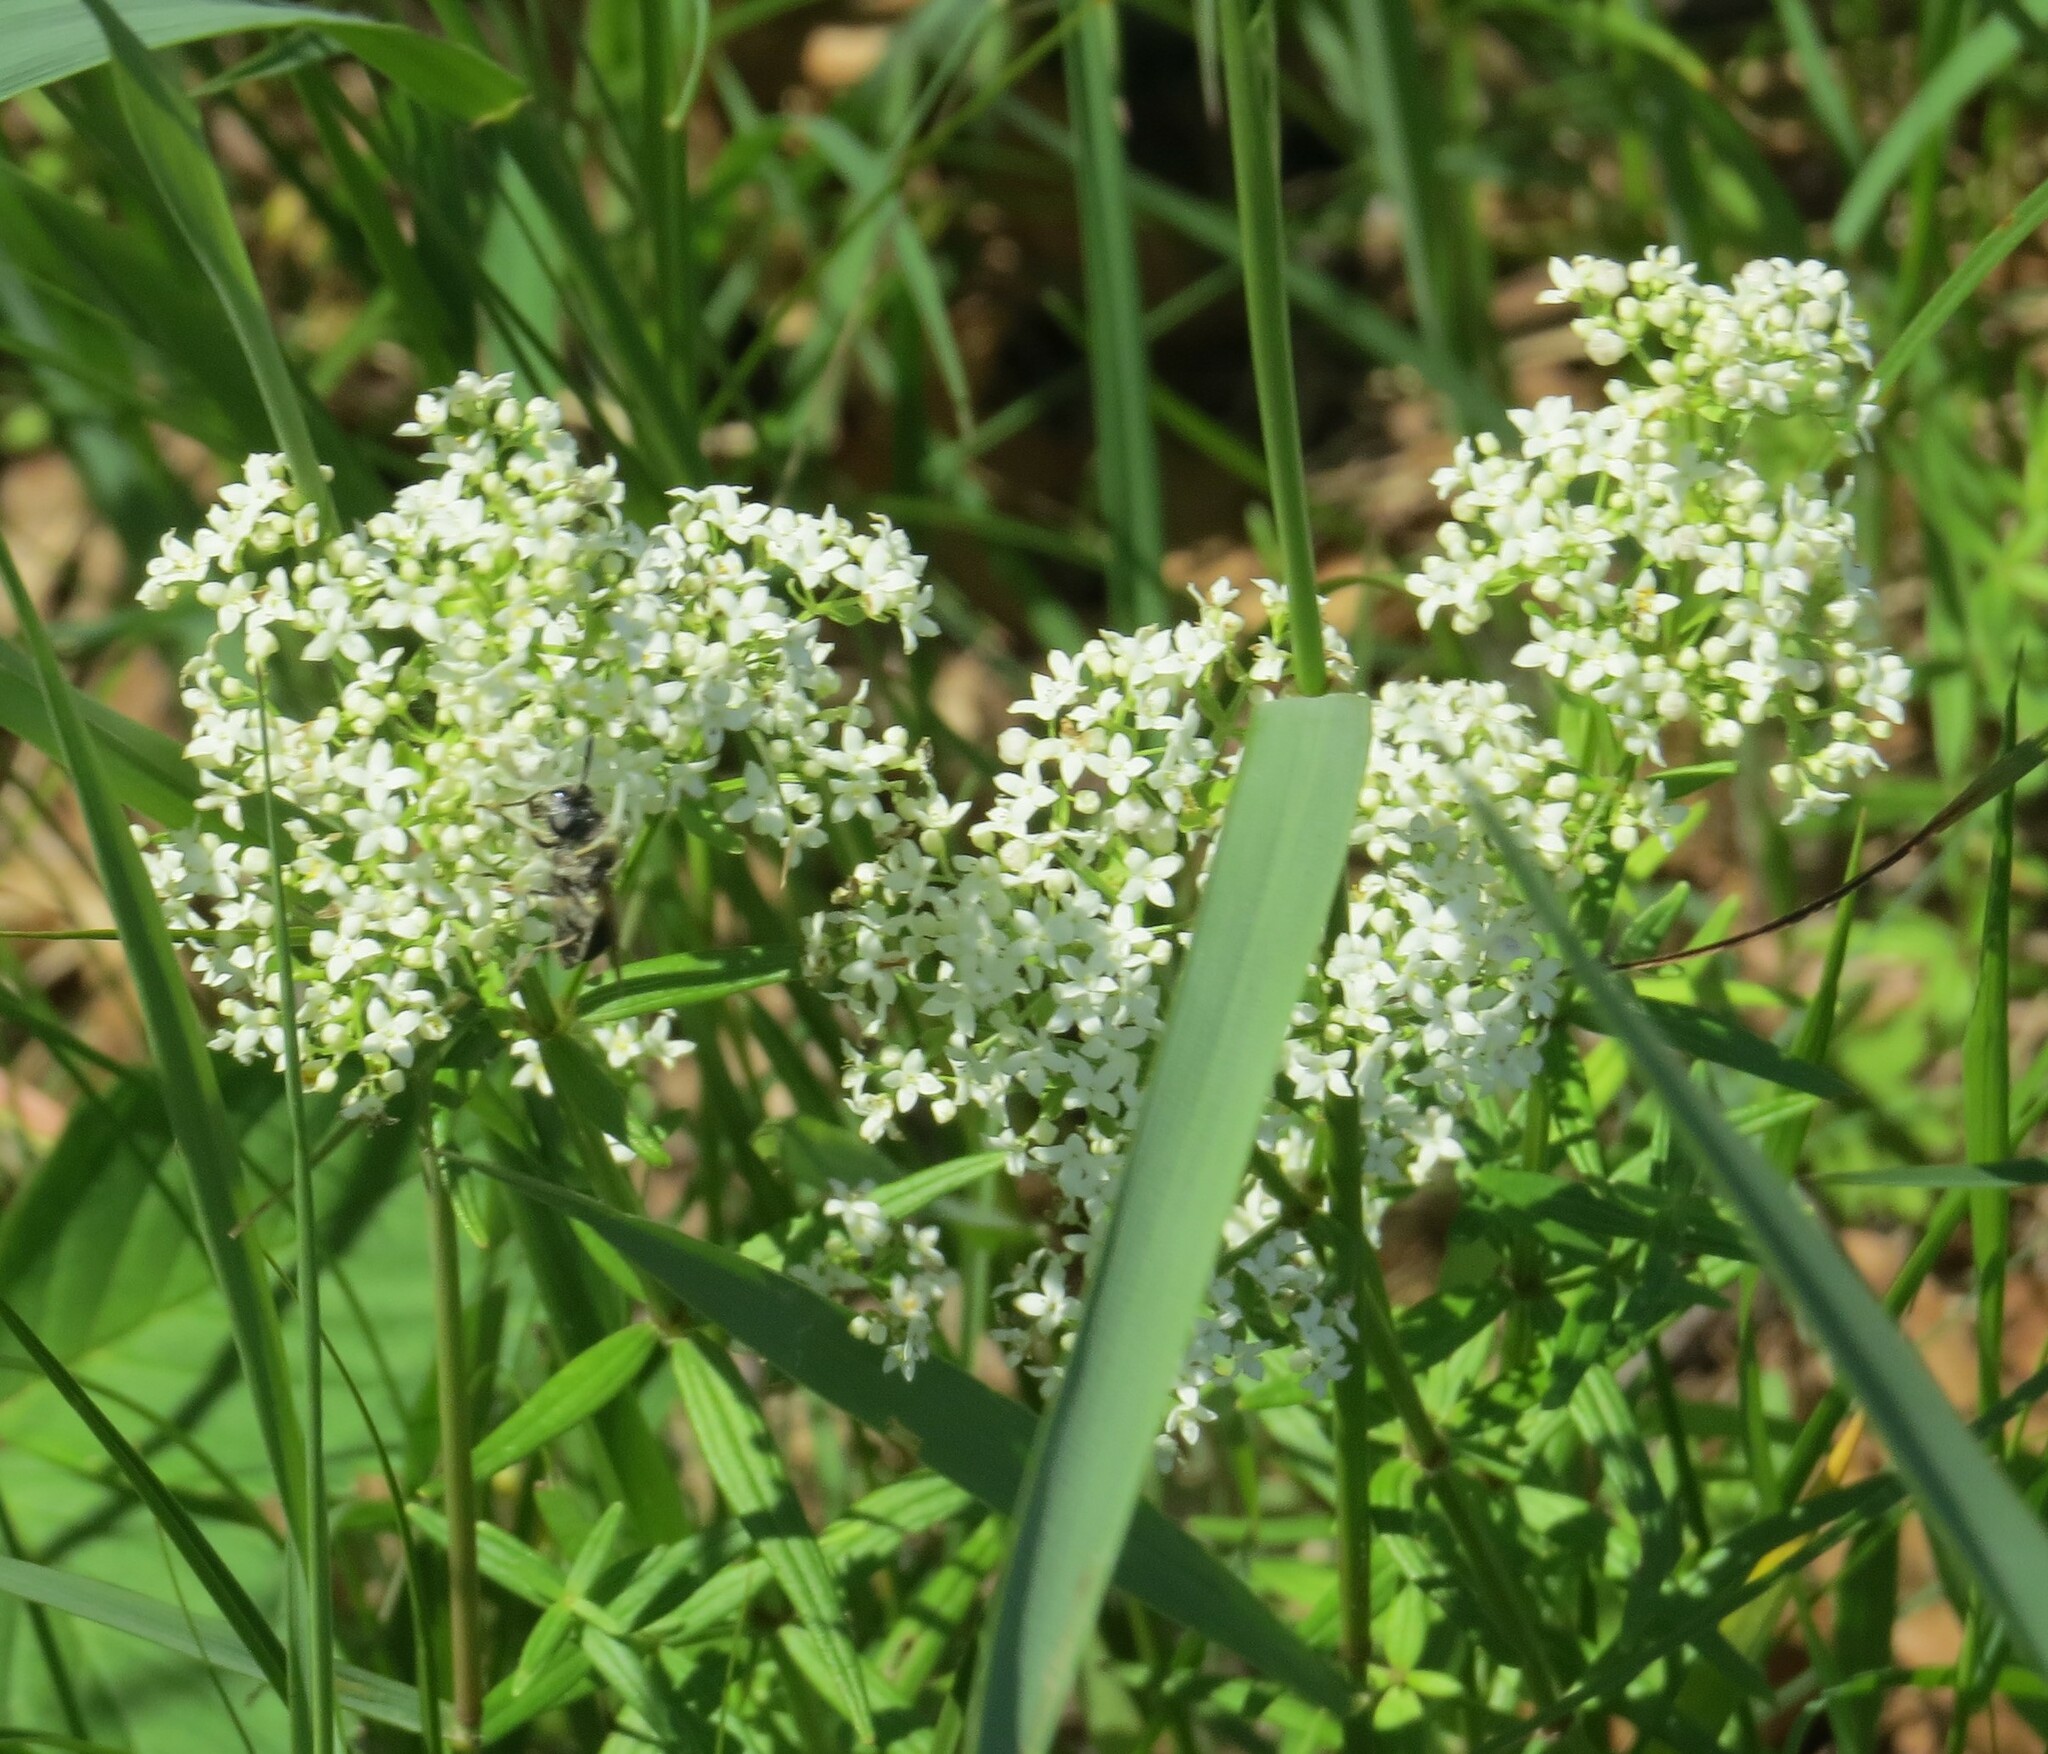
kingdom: Plantae
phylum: Tracheophyta
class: Magnoliopsida
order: Gentianales
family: Rubiaceae
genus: Galium
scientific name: Galium boreale
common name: Northern bedstraw
